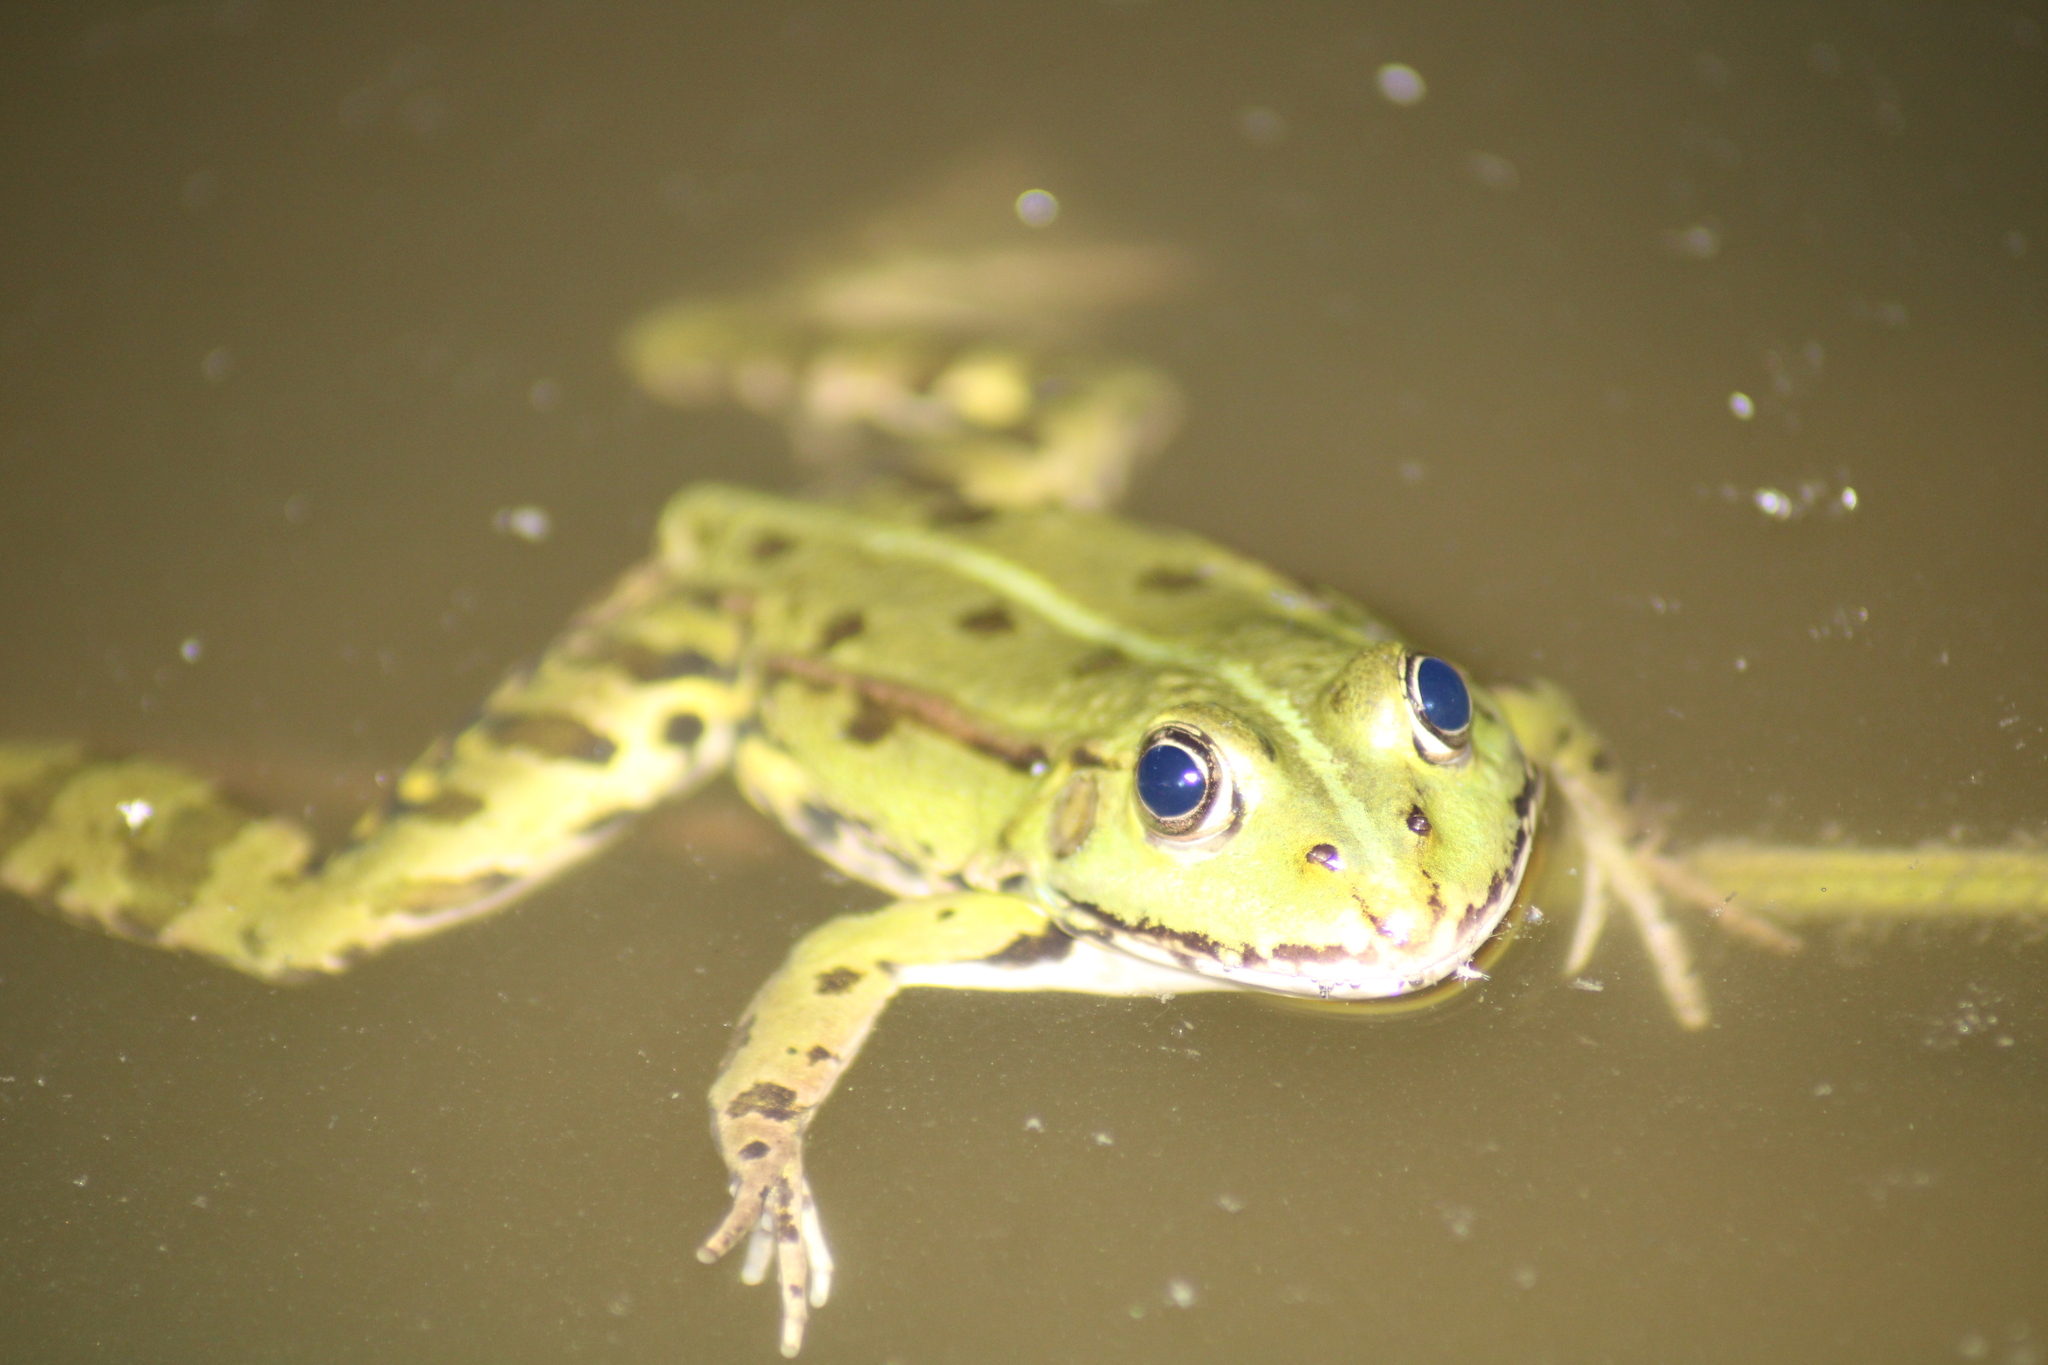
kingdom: Animalia
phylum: Chordata
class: Amphibia
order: Anura
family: Ranidae
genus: Pelophylax
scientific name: Pelophylax
